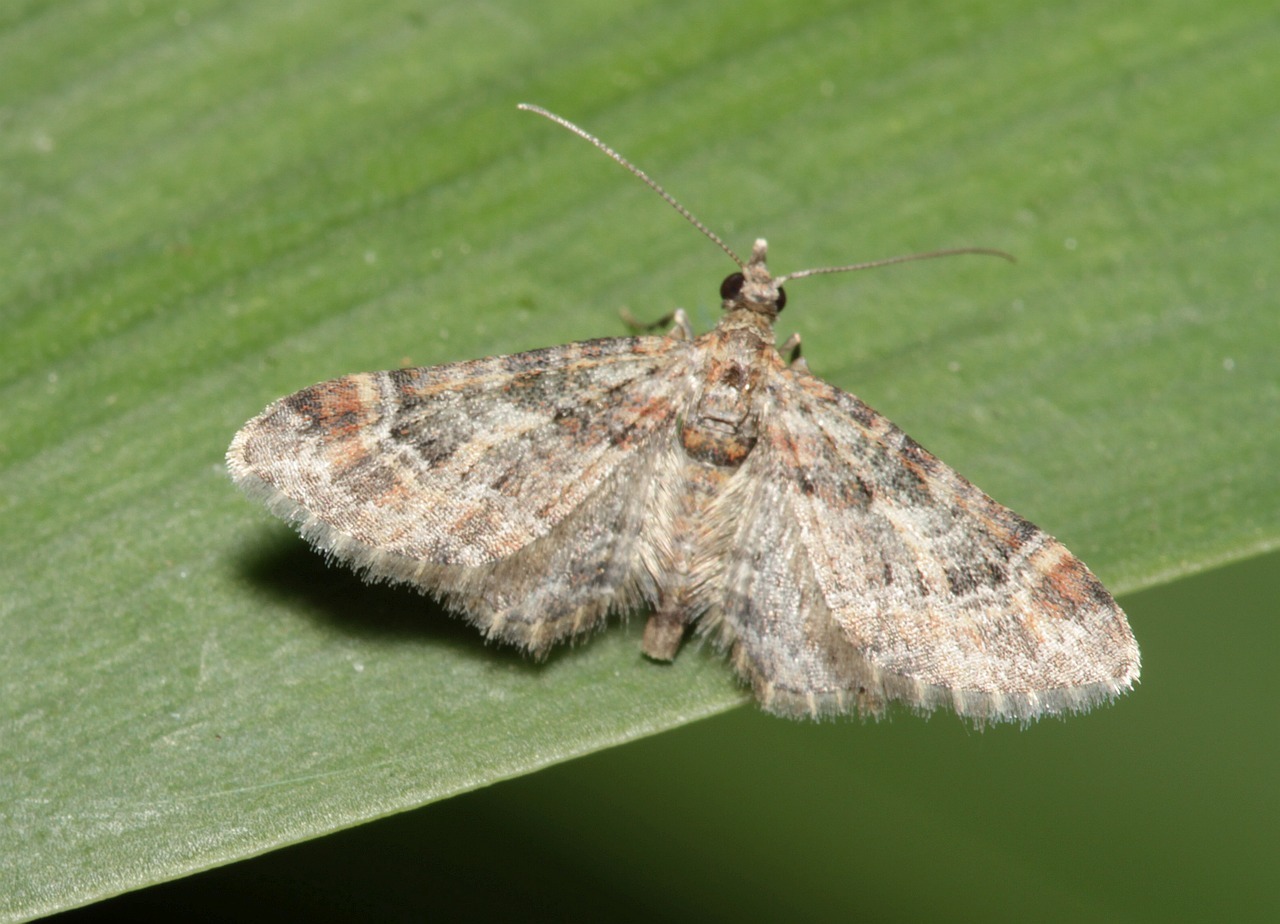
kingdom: Animalia
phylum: Arthropoda
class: Insecta
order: Lepidoptera
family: Geometridae
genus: Gymnoscelis
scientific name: Gymnoscelis rufifasciata
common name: Double-striped pug
